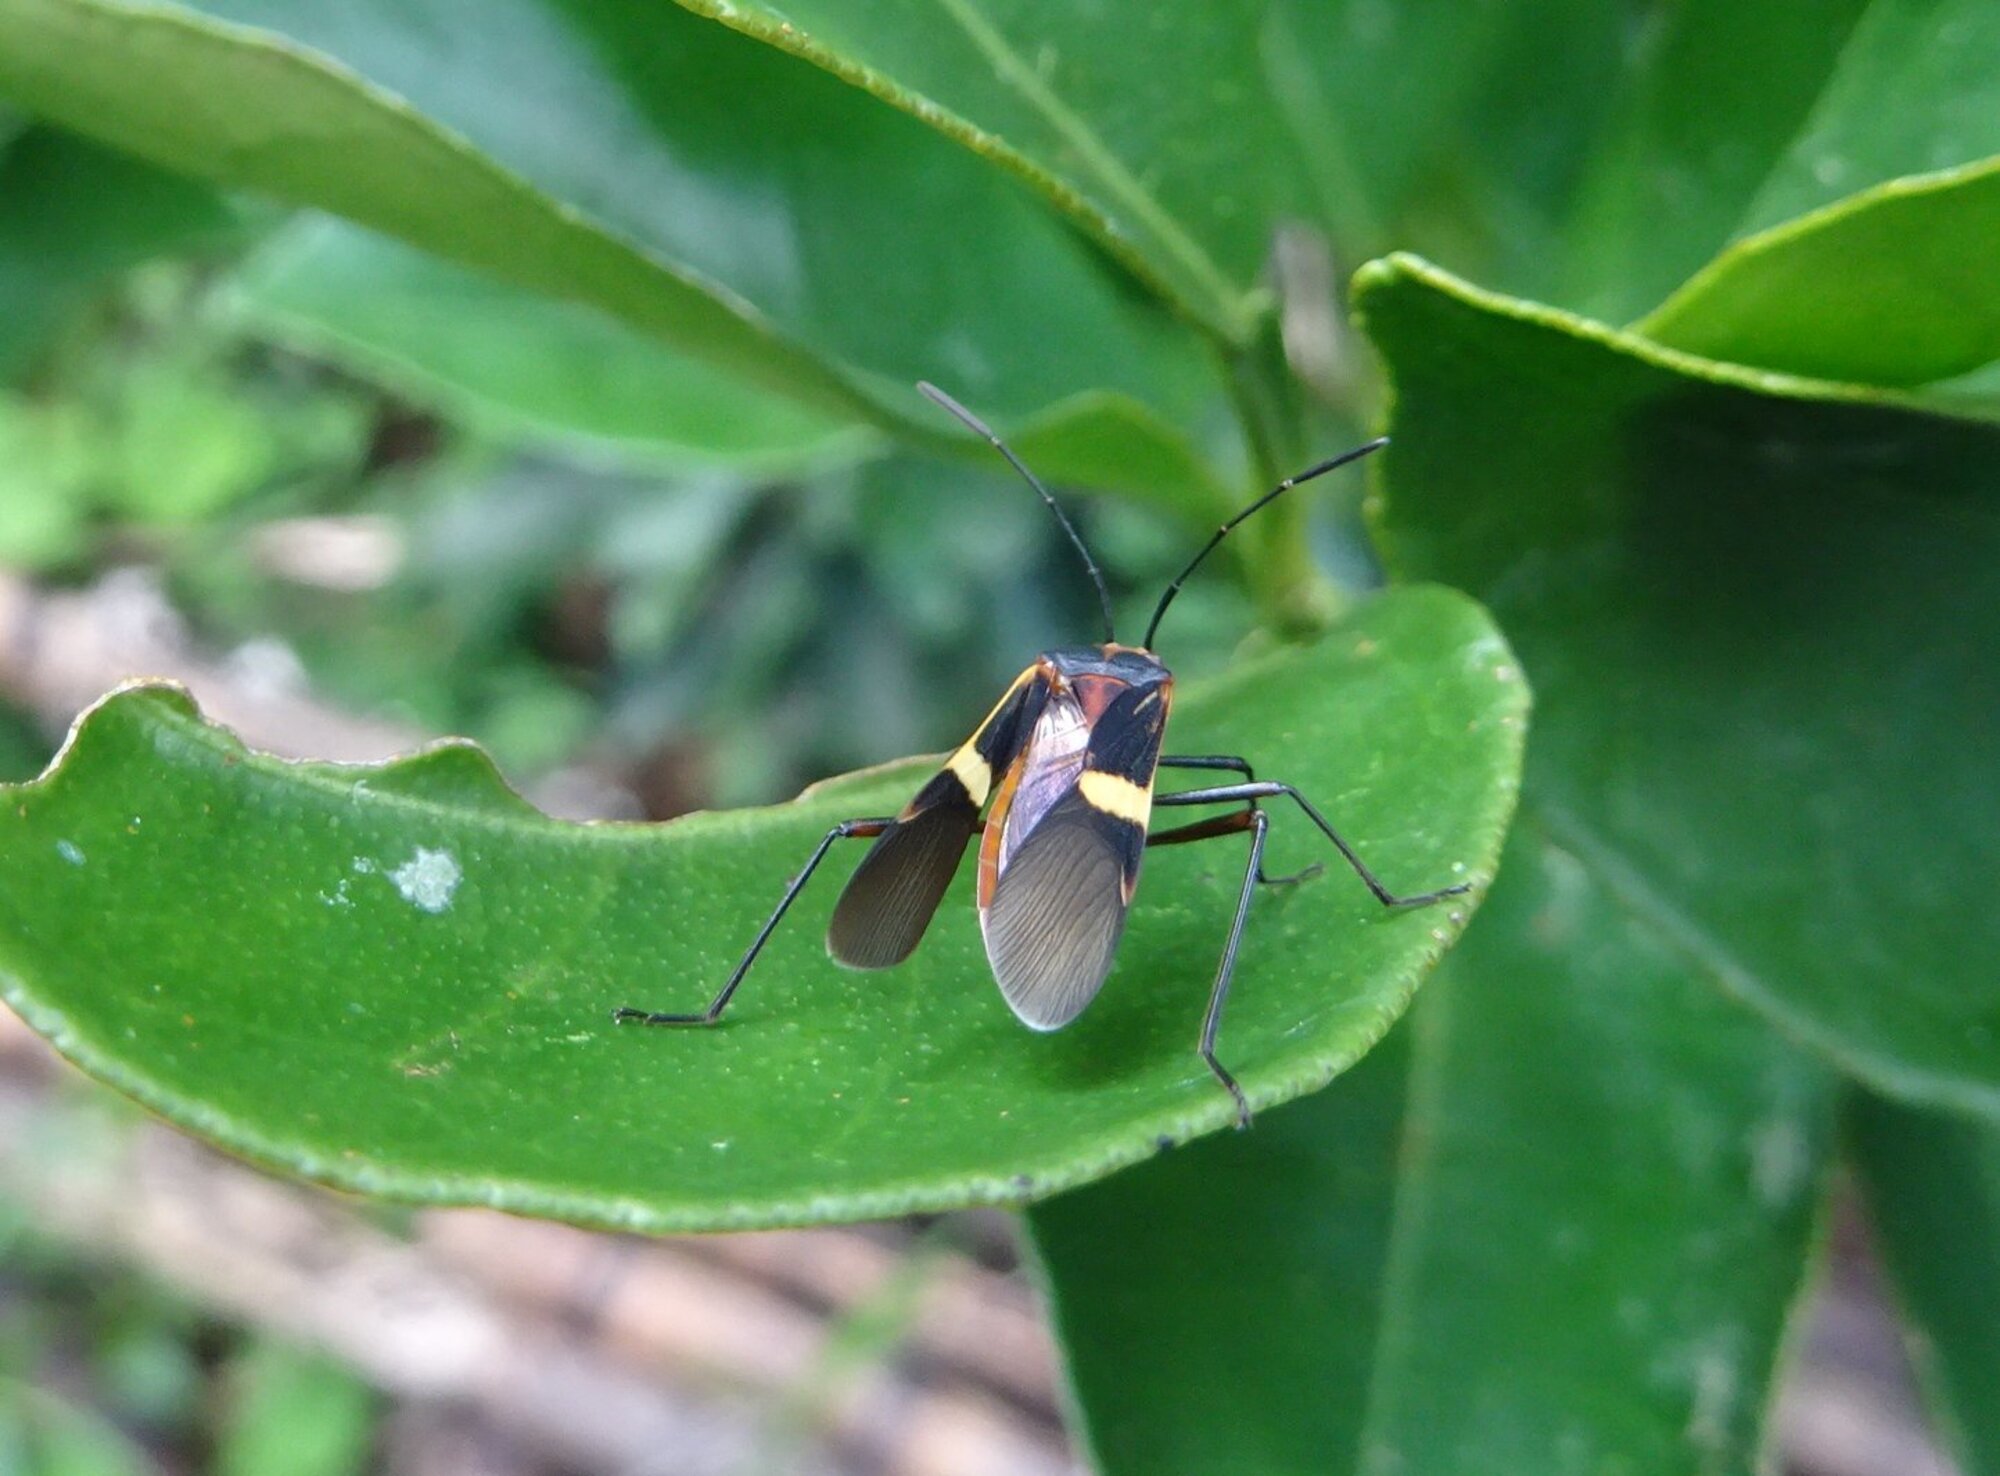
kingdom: Animalia
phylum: Arthropoda
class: Insecta
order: Hemiptera
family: Coreidae
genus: Hypselonotus
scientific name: Hypselonotus interruptus
